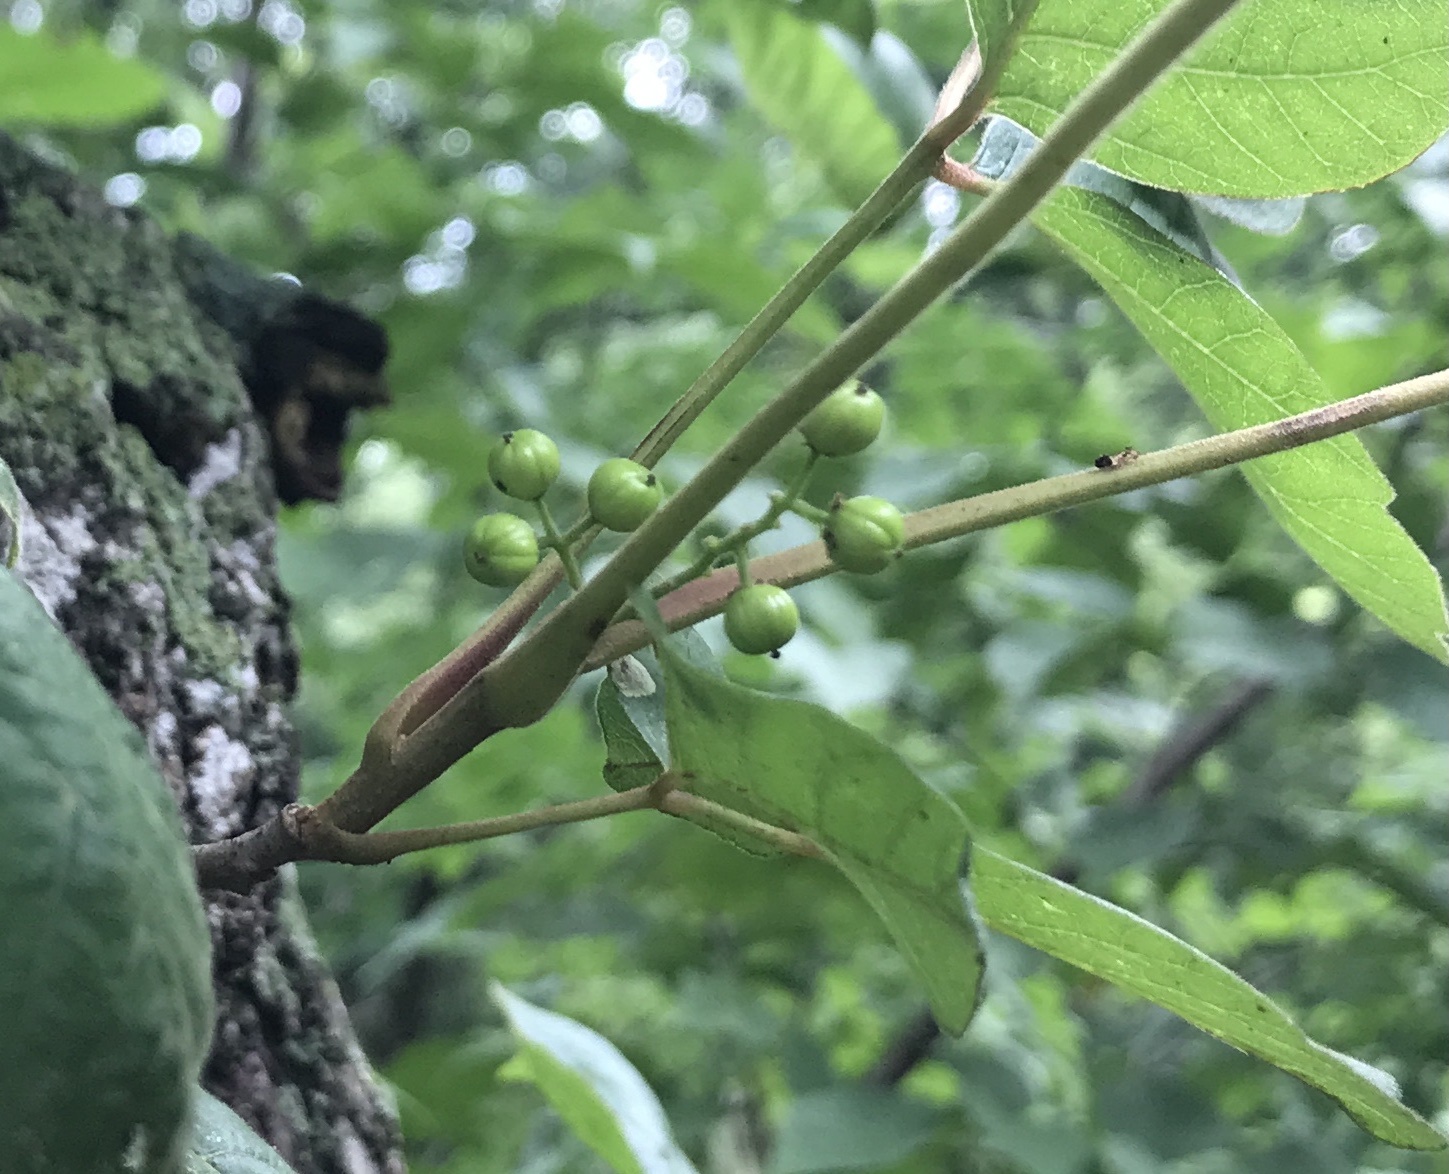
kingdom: Plantae
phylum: Tracheophyta
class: Magnoliopsida
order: Sapindales
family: Anacardiaceae
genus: Toxicodendron
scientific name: Toxicodendron radicans
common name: Poison ivy
